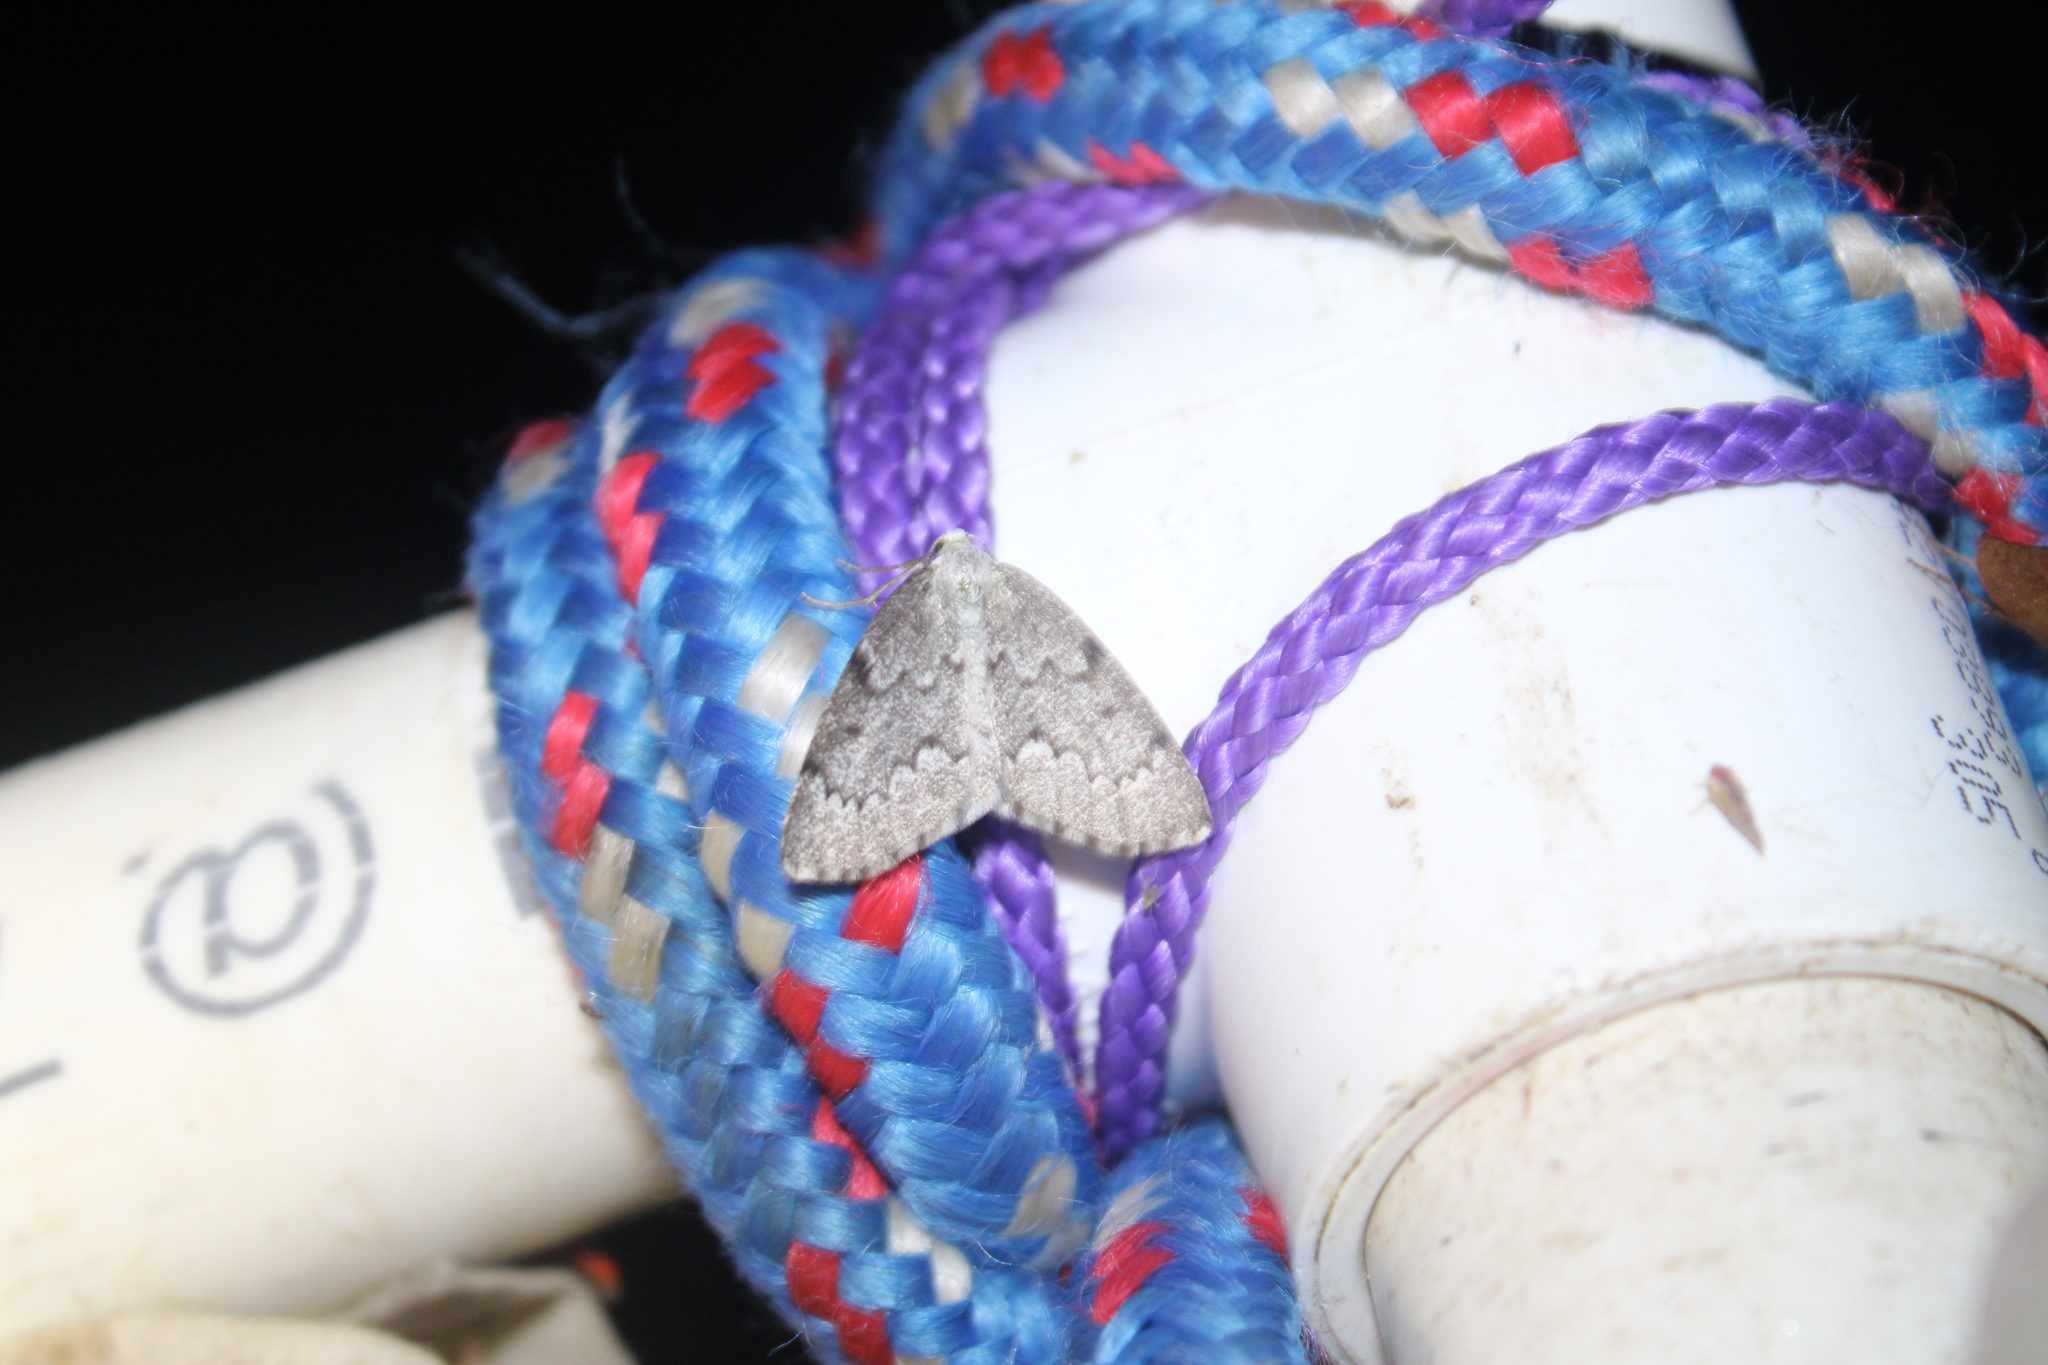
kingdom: Animalia
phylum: Arthropoda
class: Insecta
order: Lepidoptera
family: Geometridae
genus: Nepytia
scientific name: Nepytia canosaria
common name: False hemlock looper
